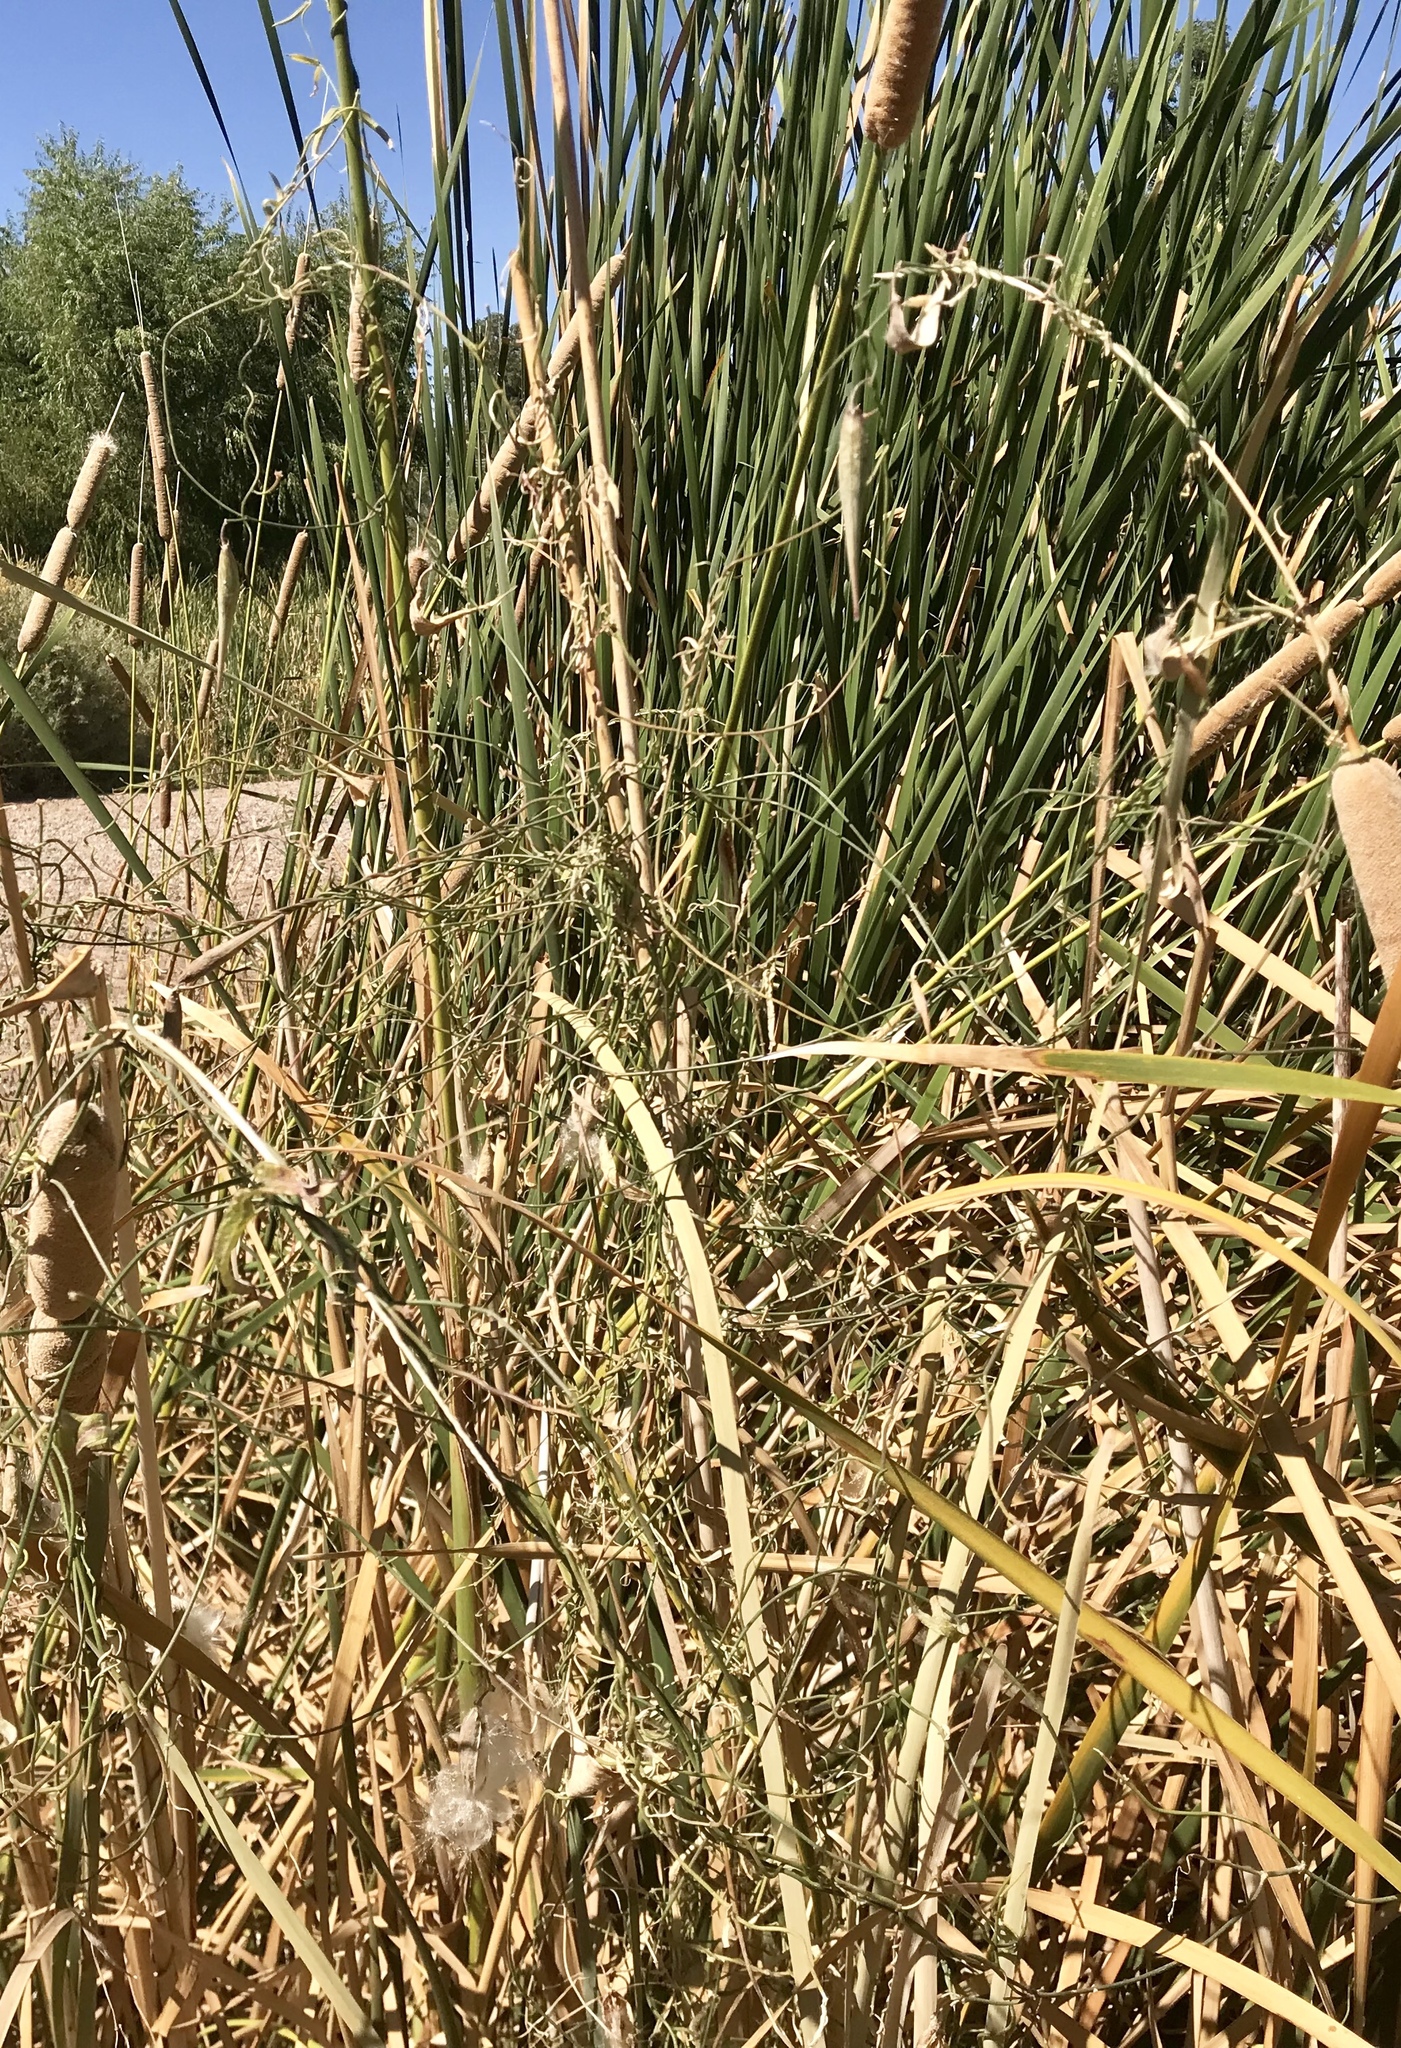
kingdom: Plantae
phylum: Tracheophyta
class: Magnoliopsida
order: Gentianales
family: Apocynaceae
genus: Funastrum
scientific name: Funastrum heterophyllum
